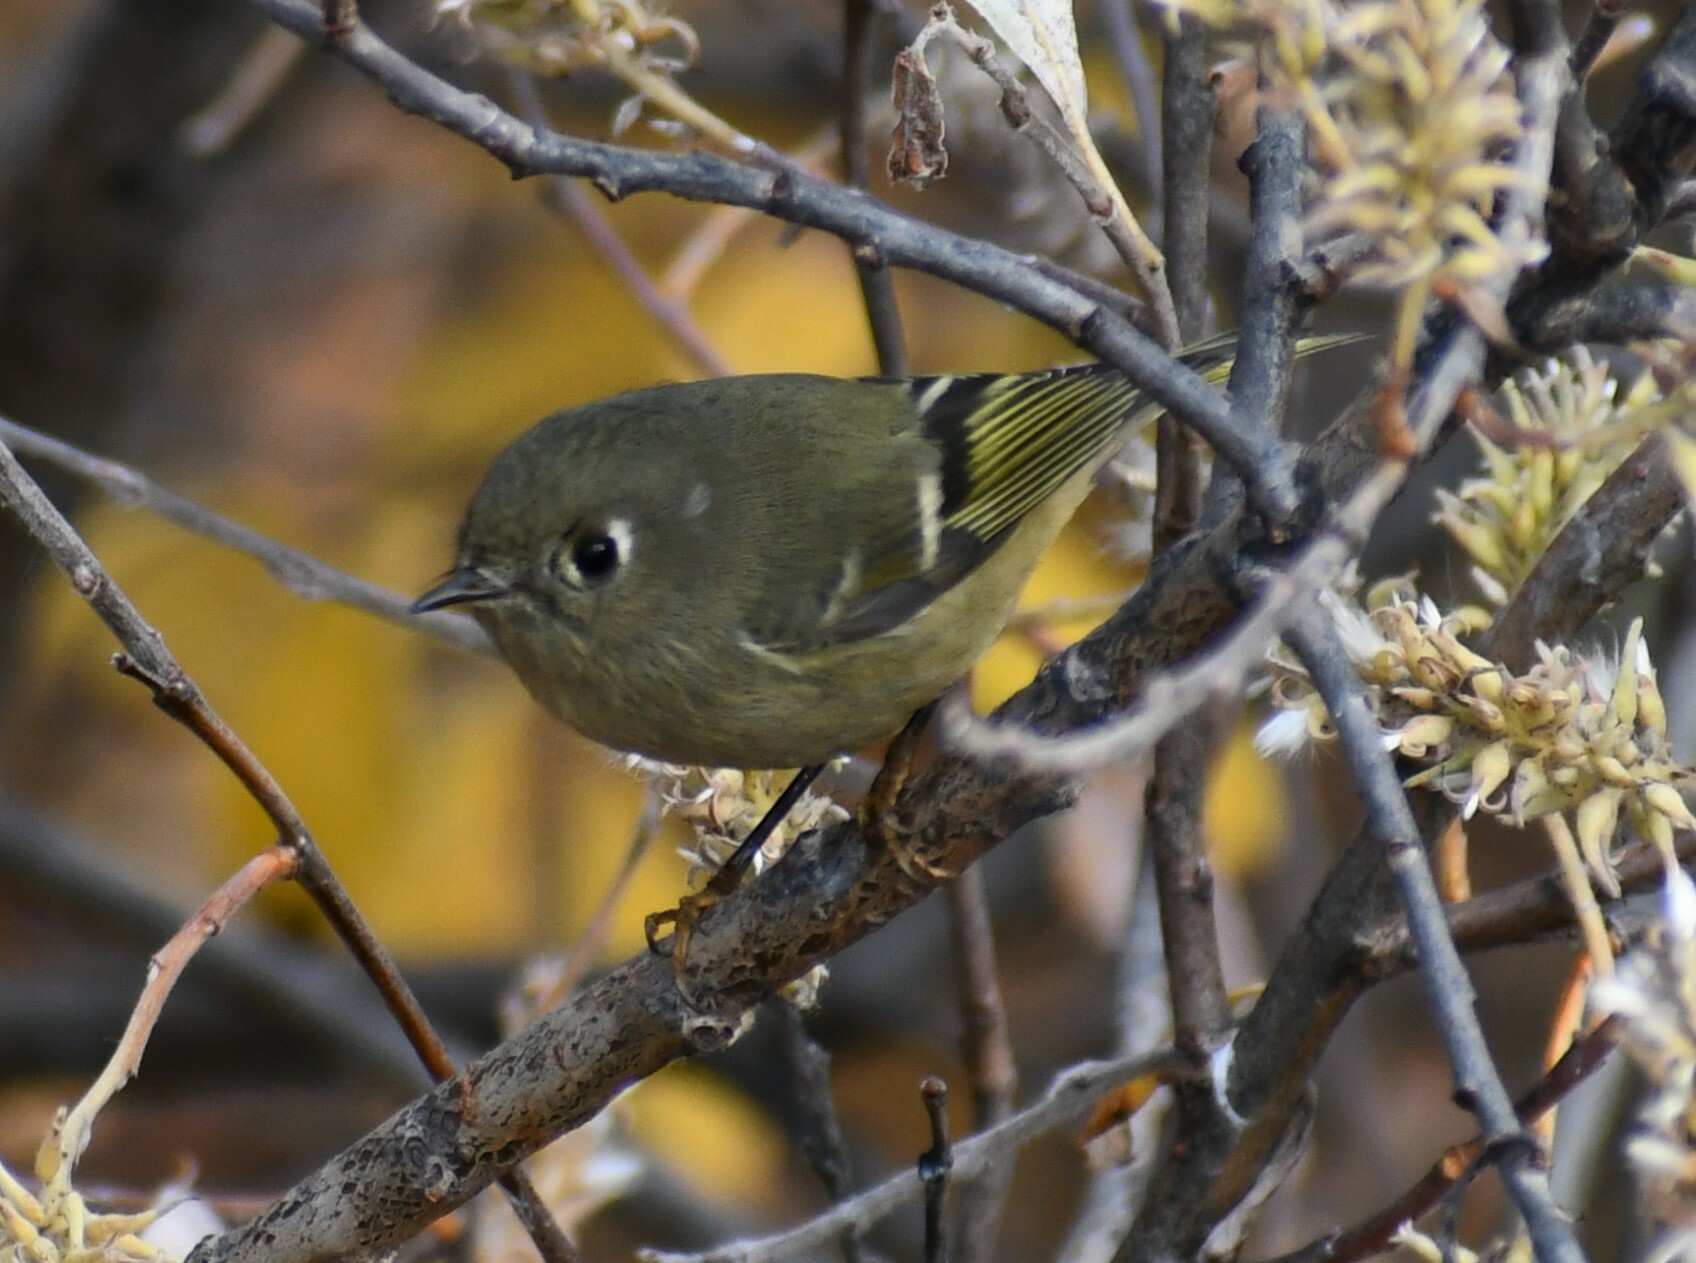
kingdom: Animalia
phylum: Chordata
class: Aves
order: Passeriformes
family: Regulidae
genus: Regulus
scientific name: Regulus calendula
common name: Ruby-crowned kinglet
